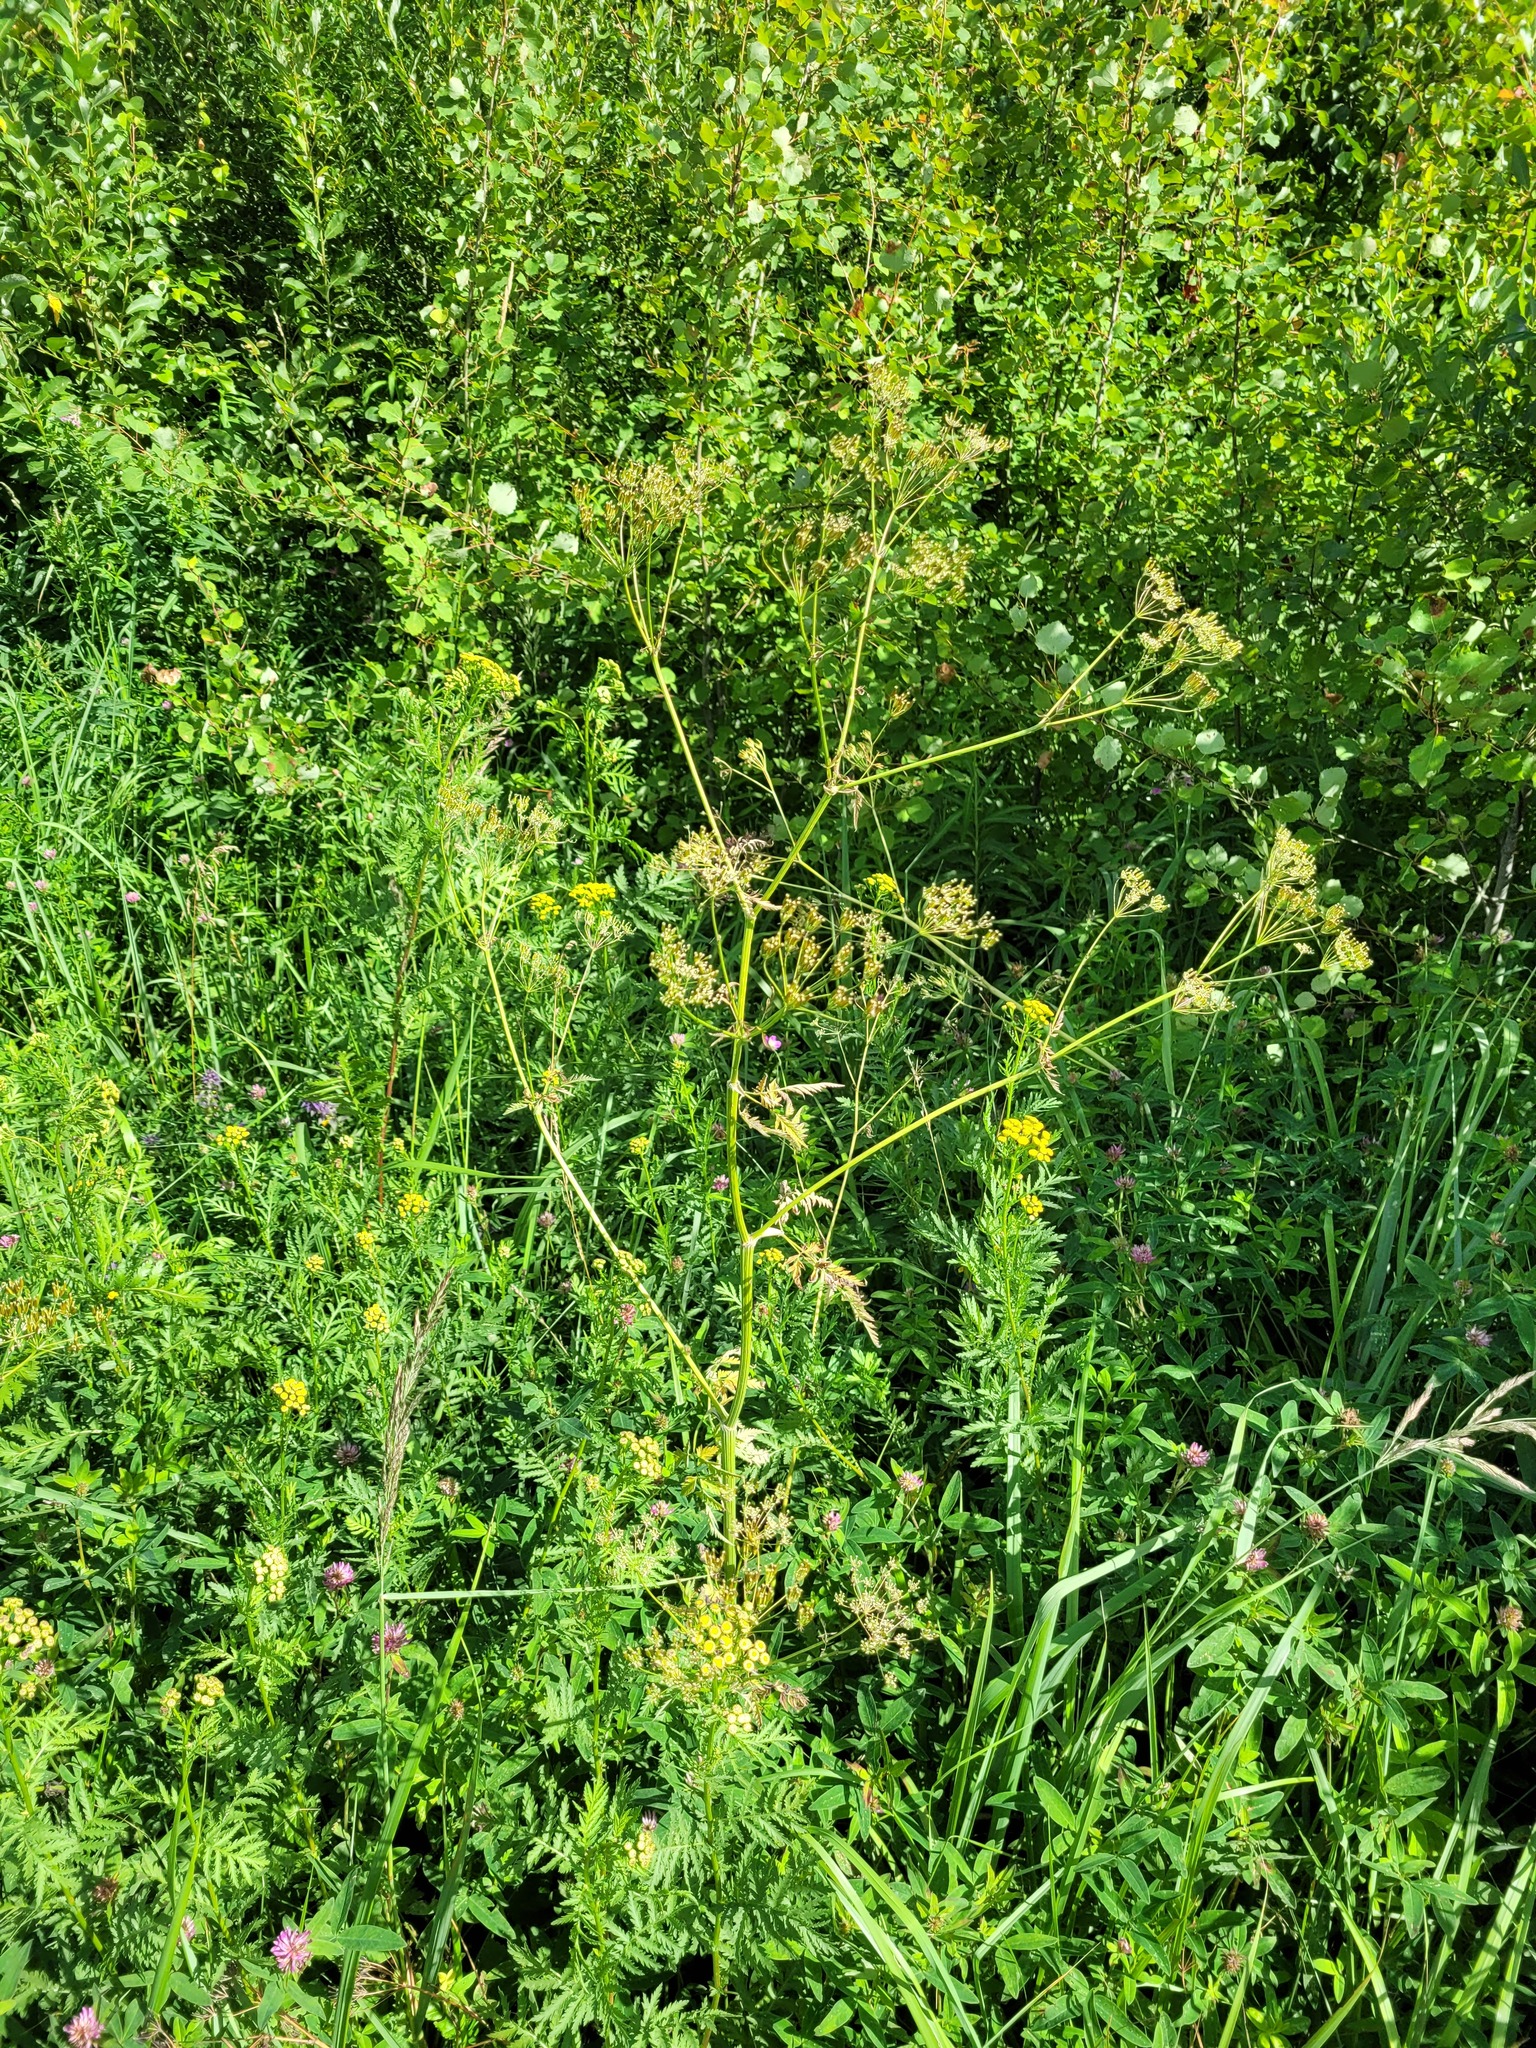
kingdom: Plantae
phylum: Tracheophyta
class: Magnoliopsida
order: Apiales
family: Apiaceae
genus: Anthriscus
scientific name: Anthriscus sylvestris
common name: Cow parsley
